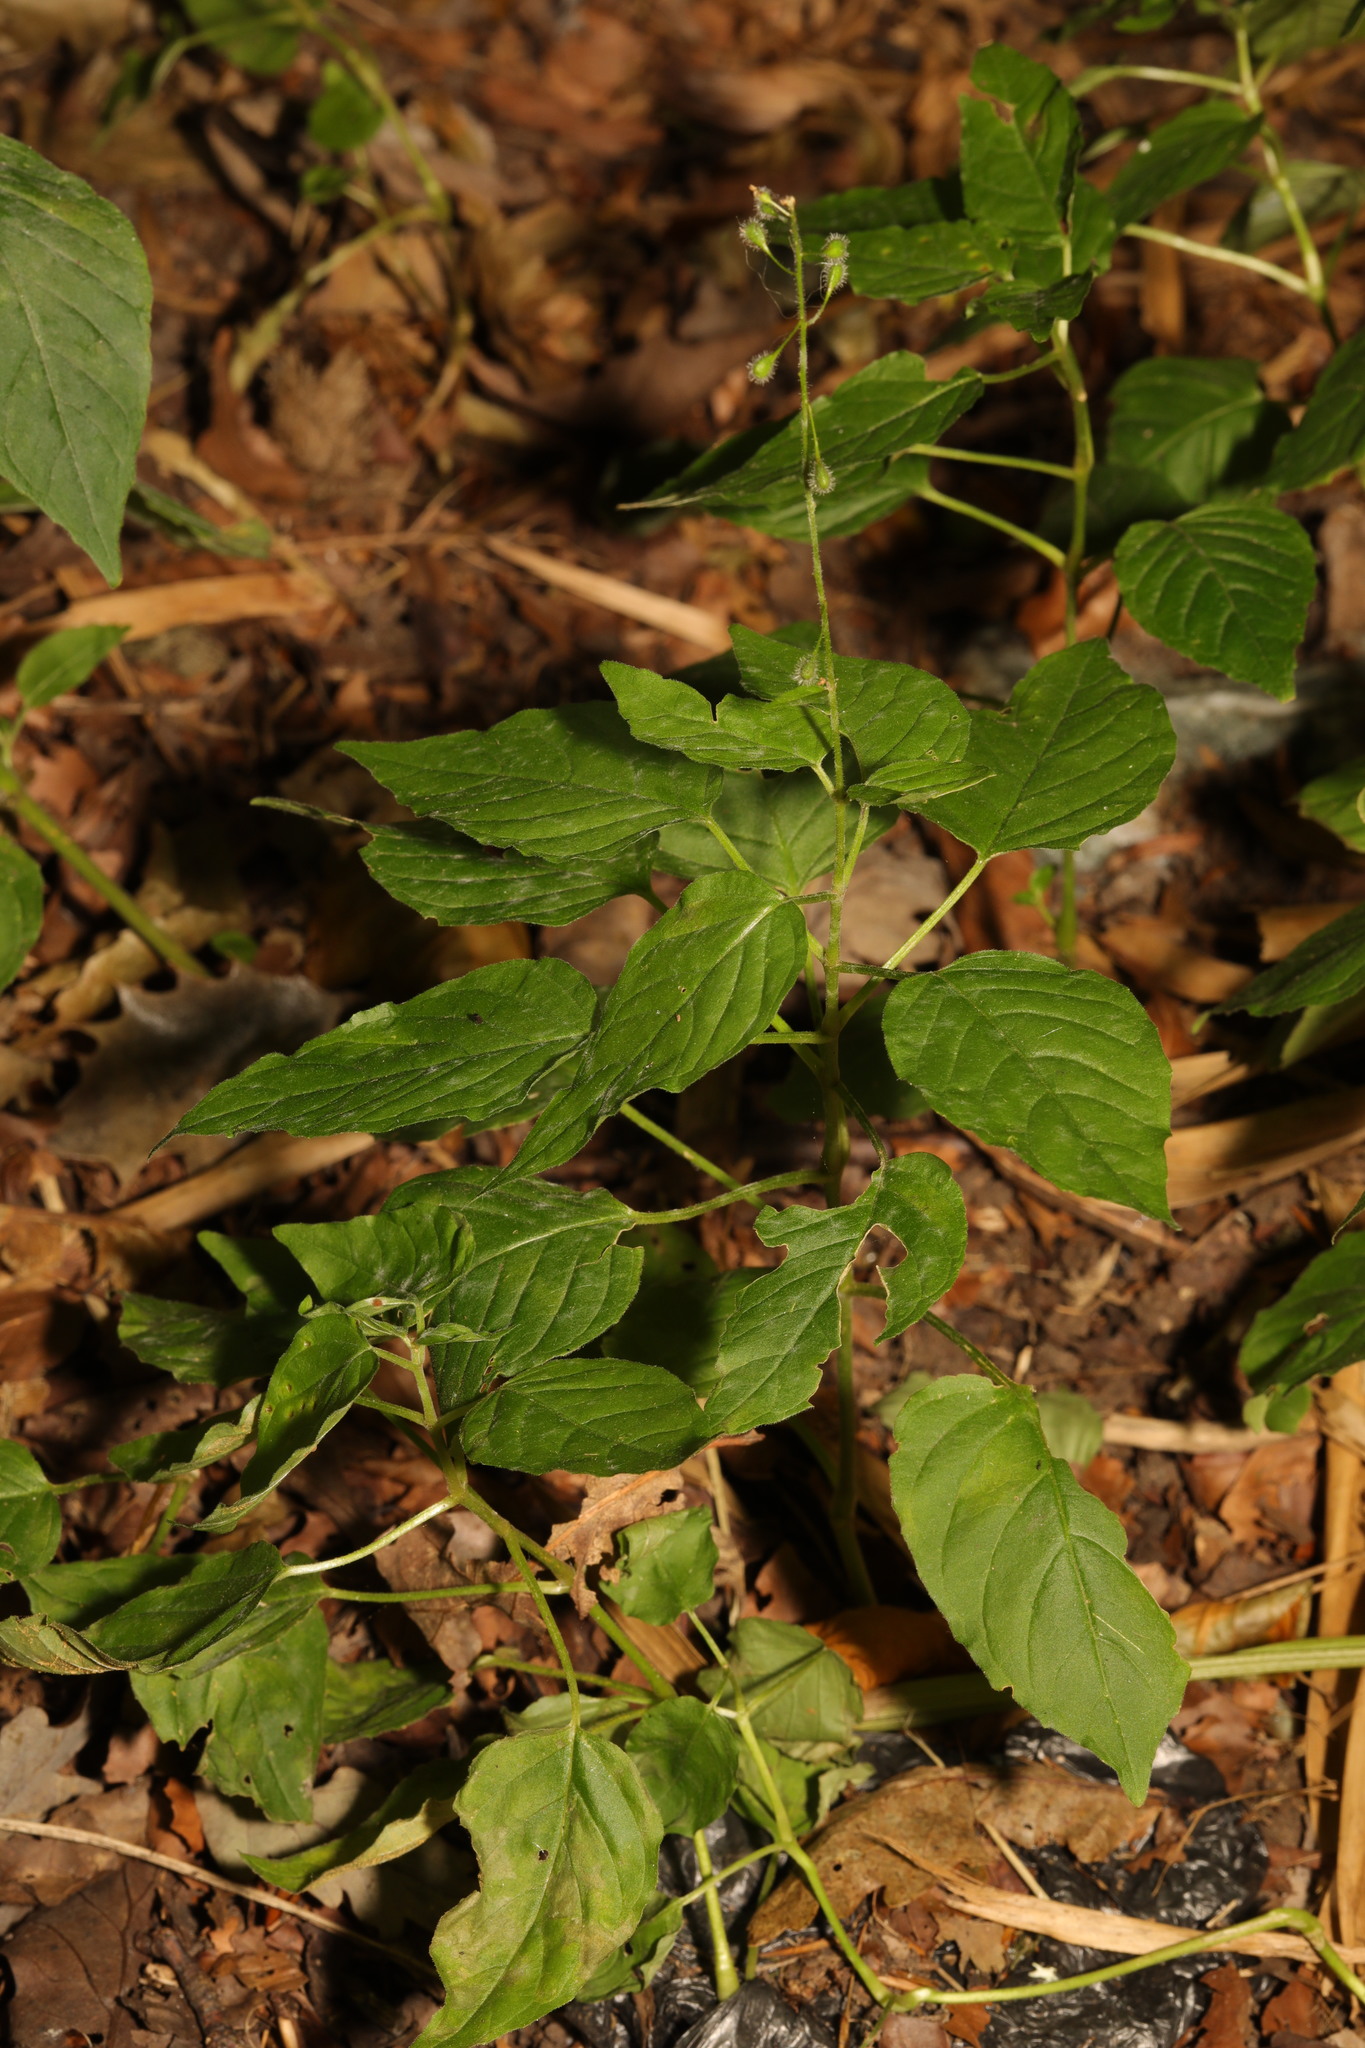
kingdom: Plantae
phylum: Tracheophyta
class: Magnoliopsida
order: Myrtales
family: Onagraceae
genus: Circaea
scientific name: Circaea lutetiana
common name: Enchanter's-nightshade
